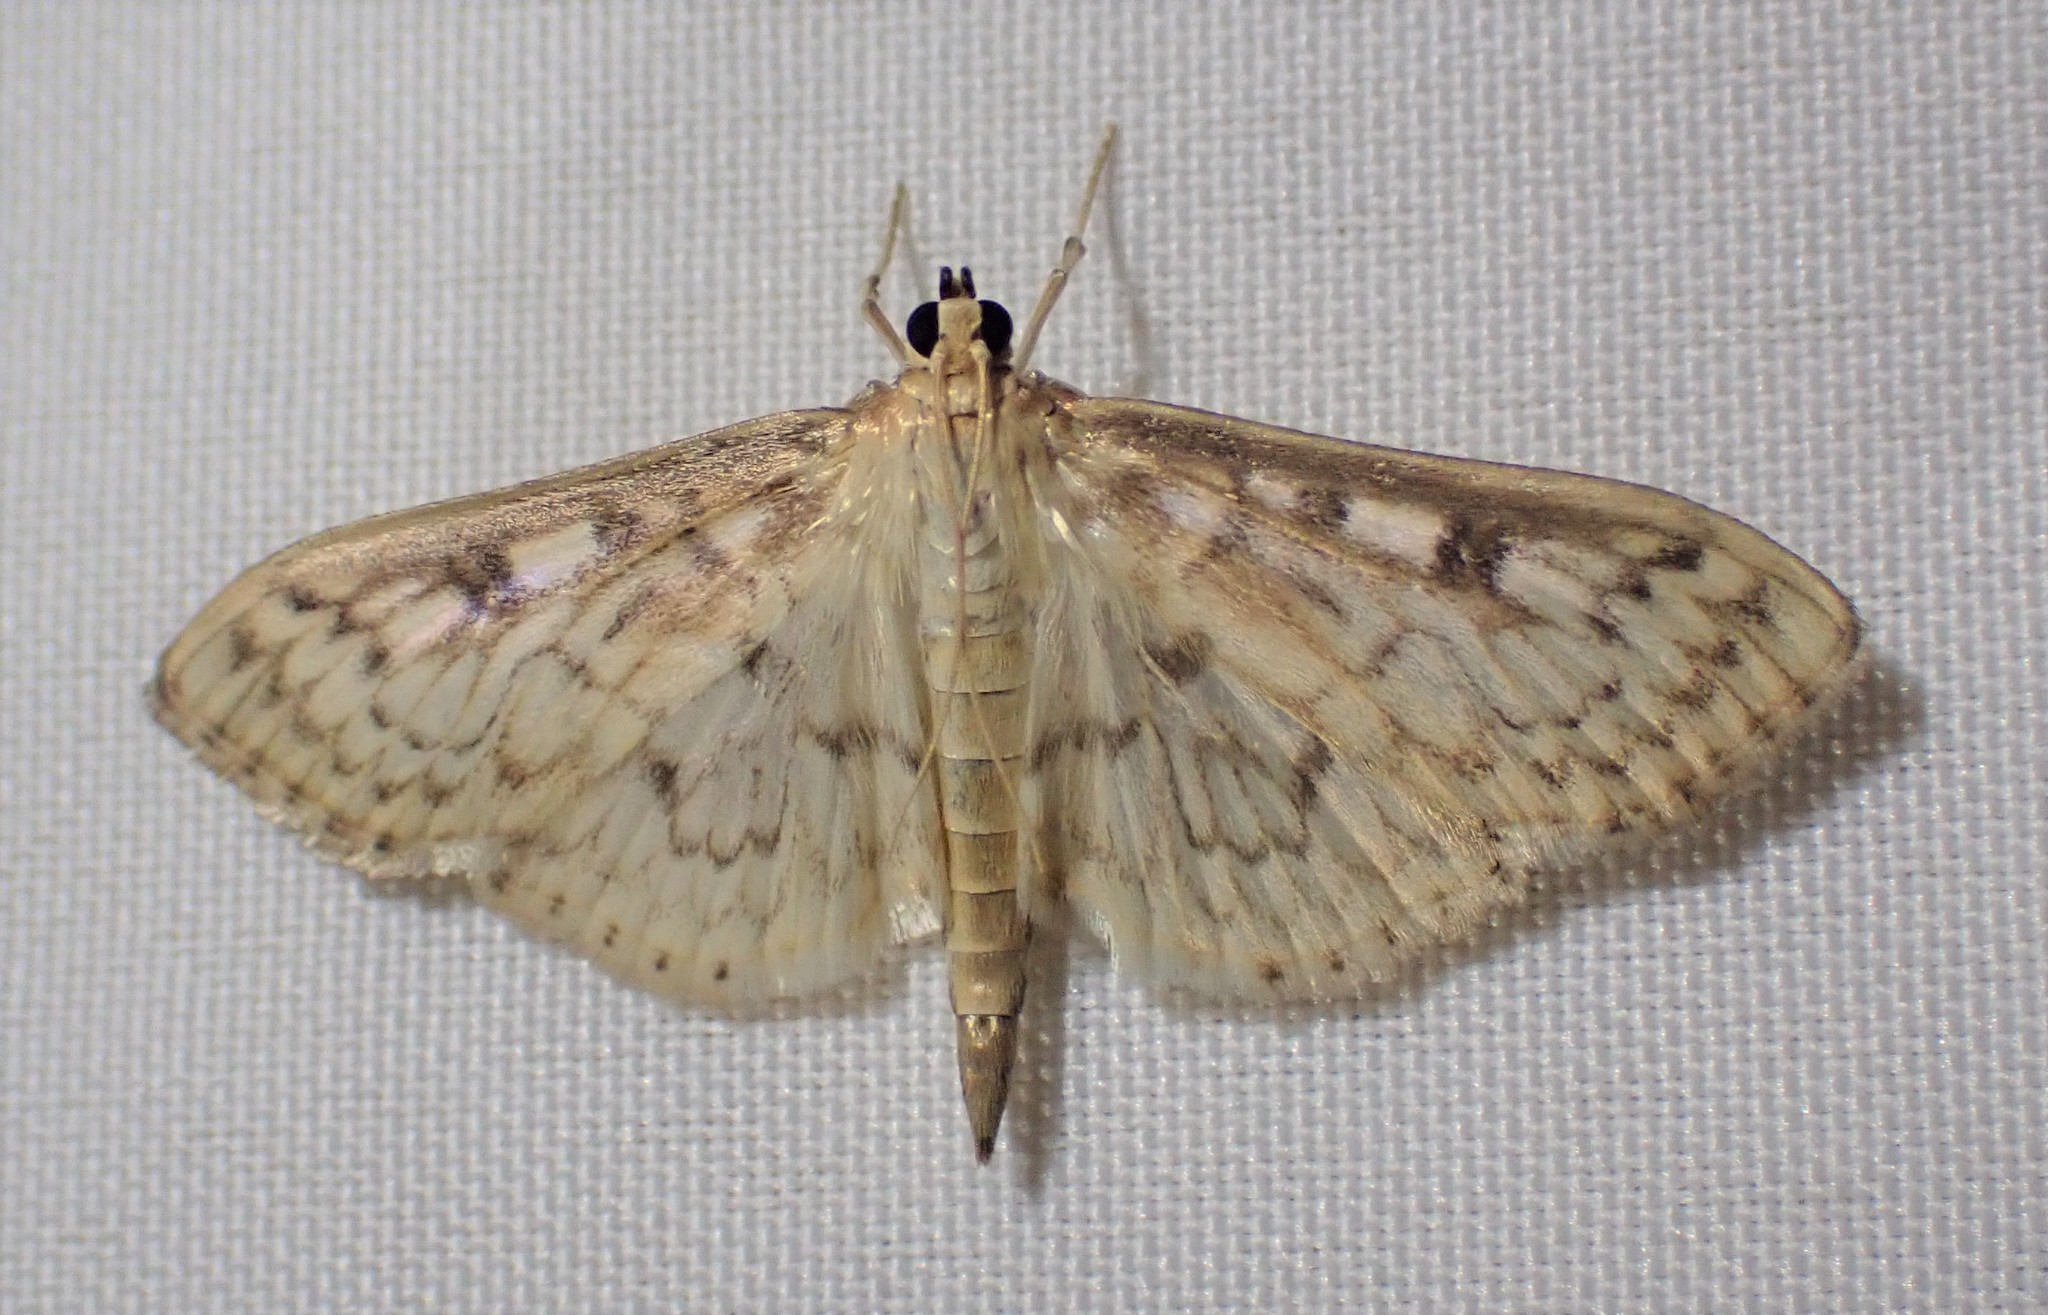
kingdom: Animalia
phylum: Arthropoda
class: Insecta
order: Lepidoptera
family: Crambidae
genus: Herpetogramma
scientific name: Herpetogramma aquilonalis
